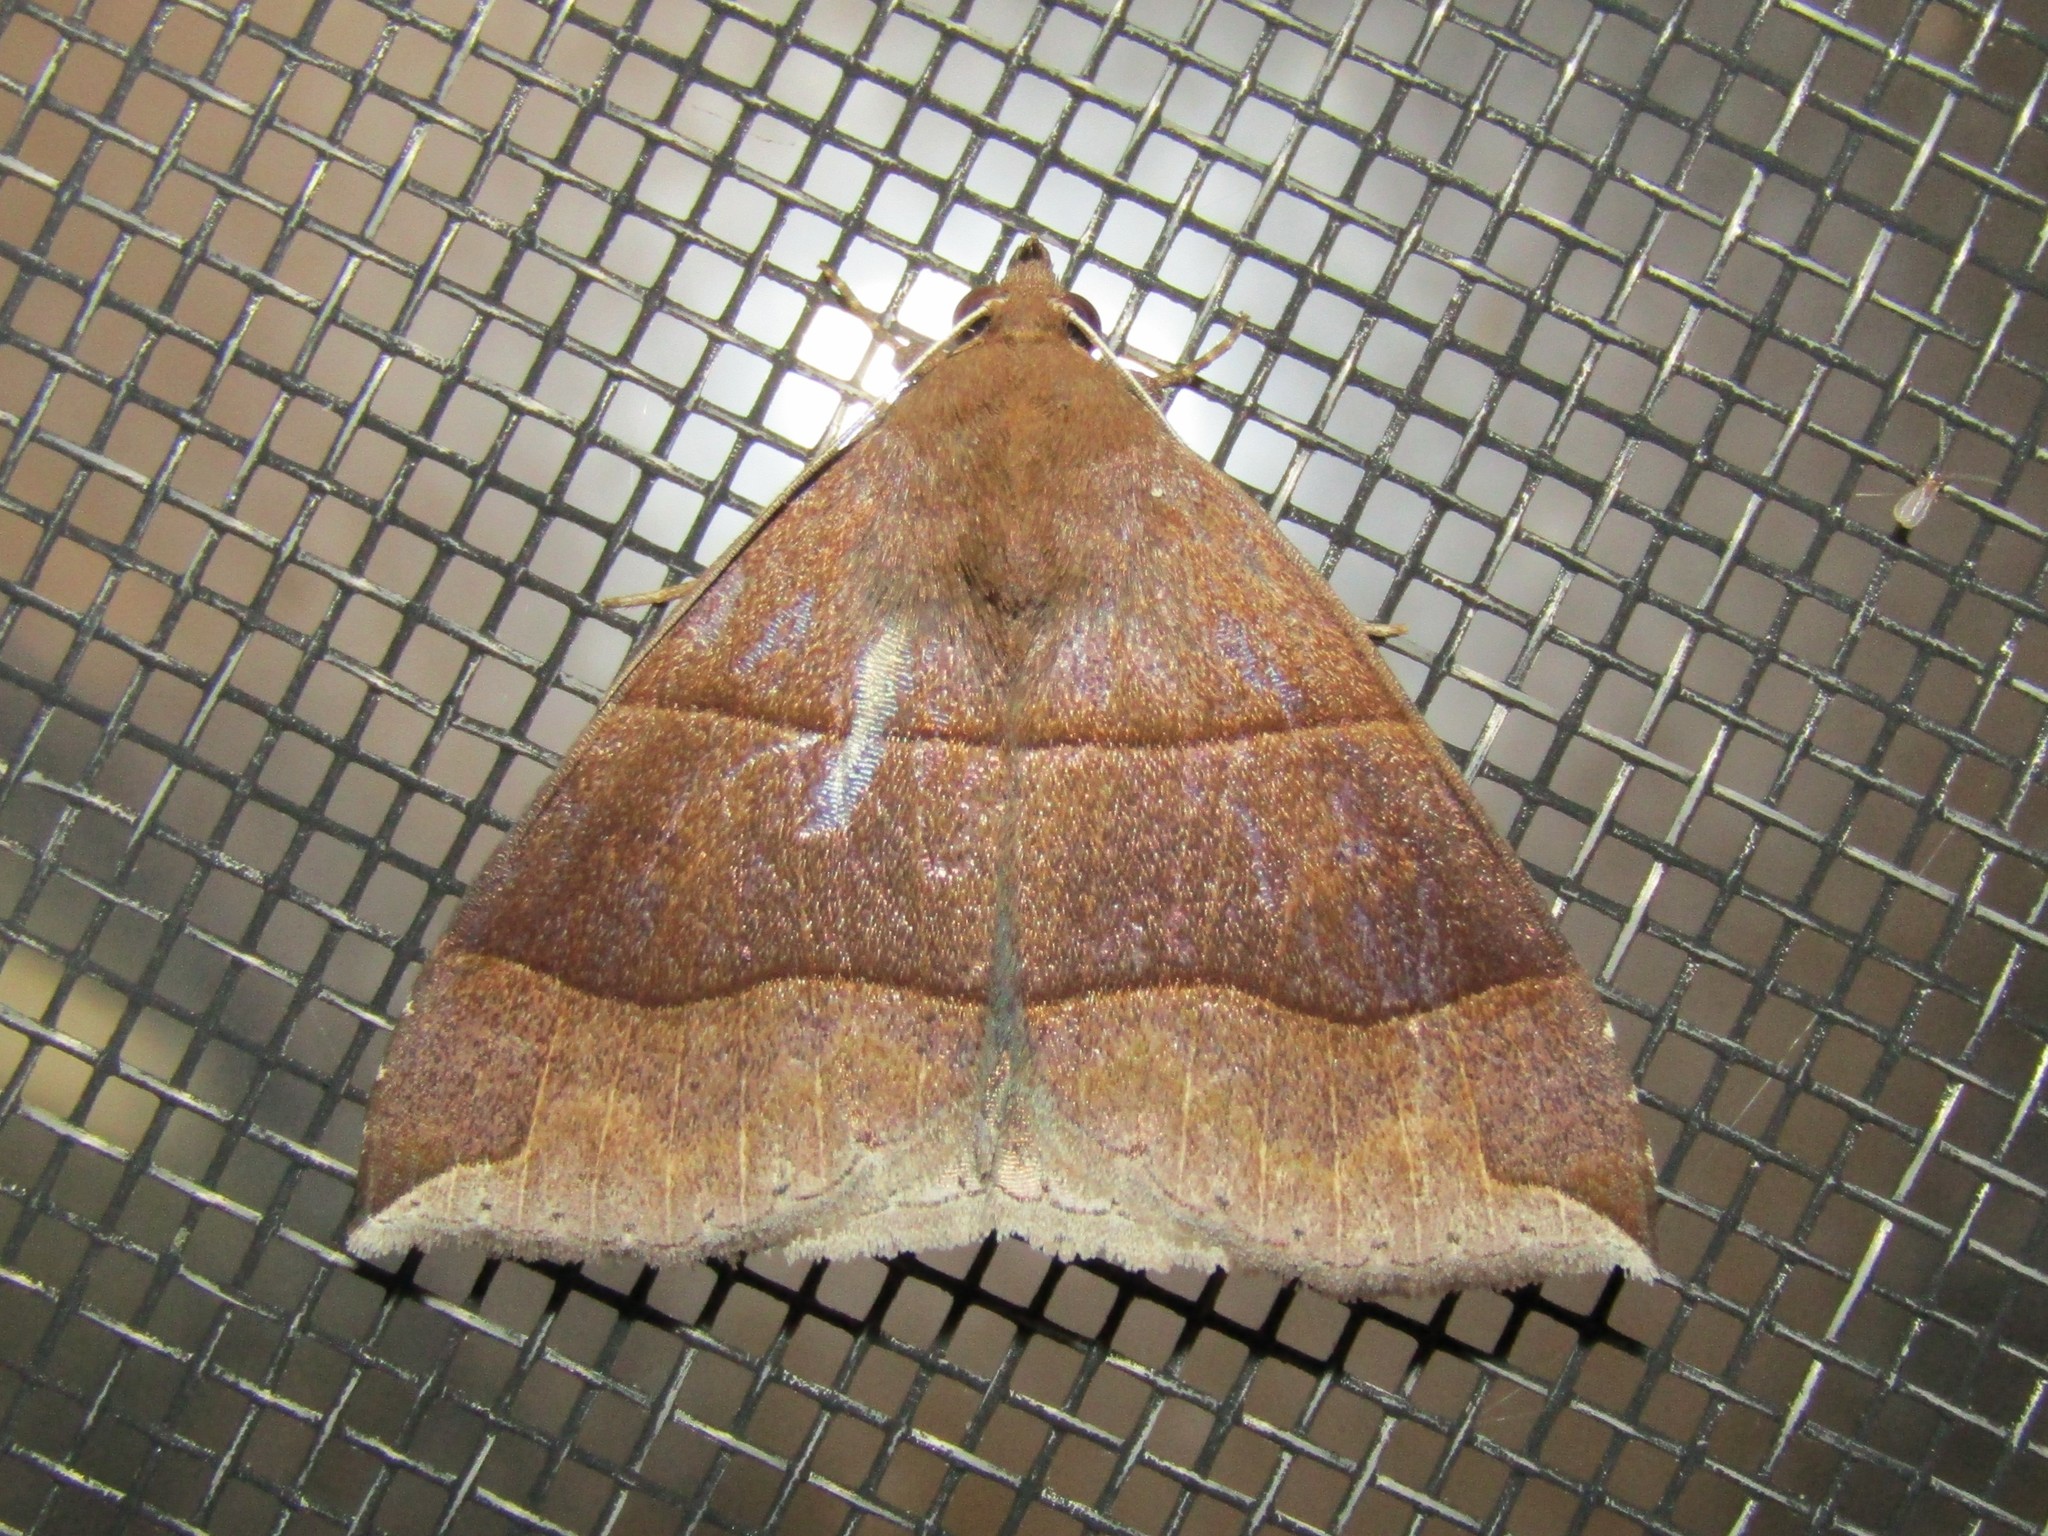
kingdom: Animalia
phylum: Arthropoda
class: Insecta
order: Lepidoptera
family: Erebidae
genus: Parallelia
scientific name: Parallelia bistriaris
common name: Maple looper moth
